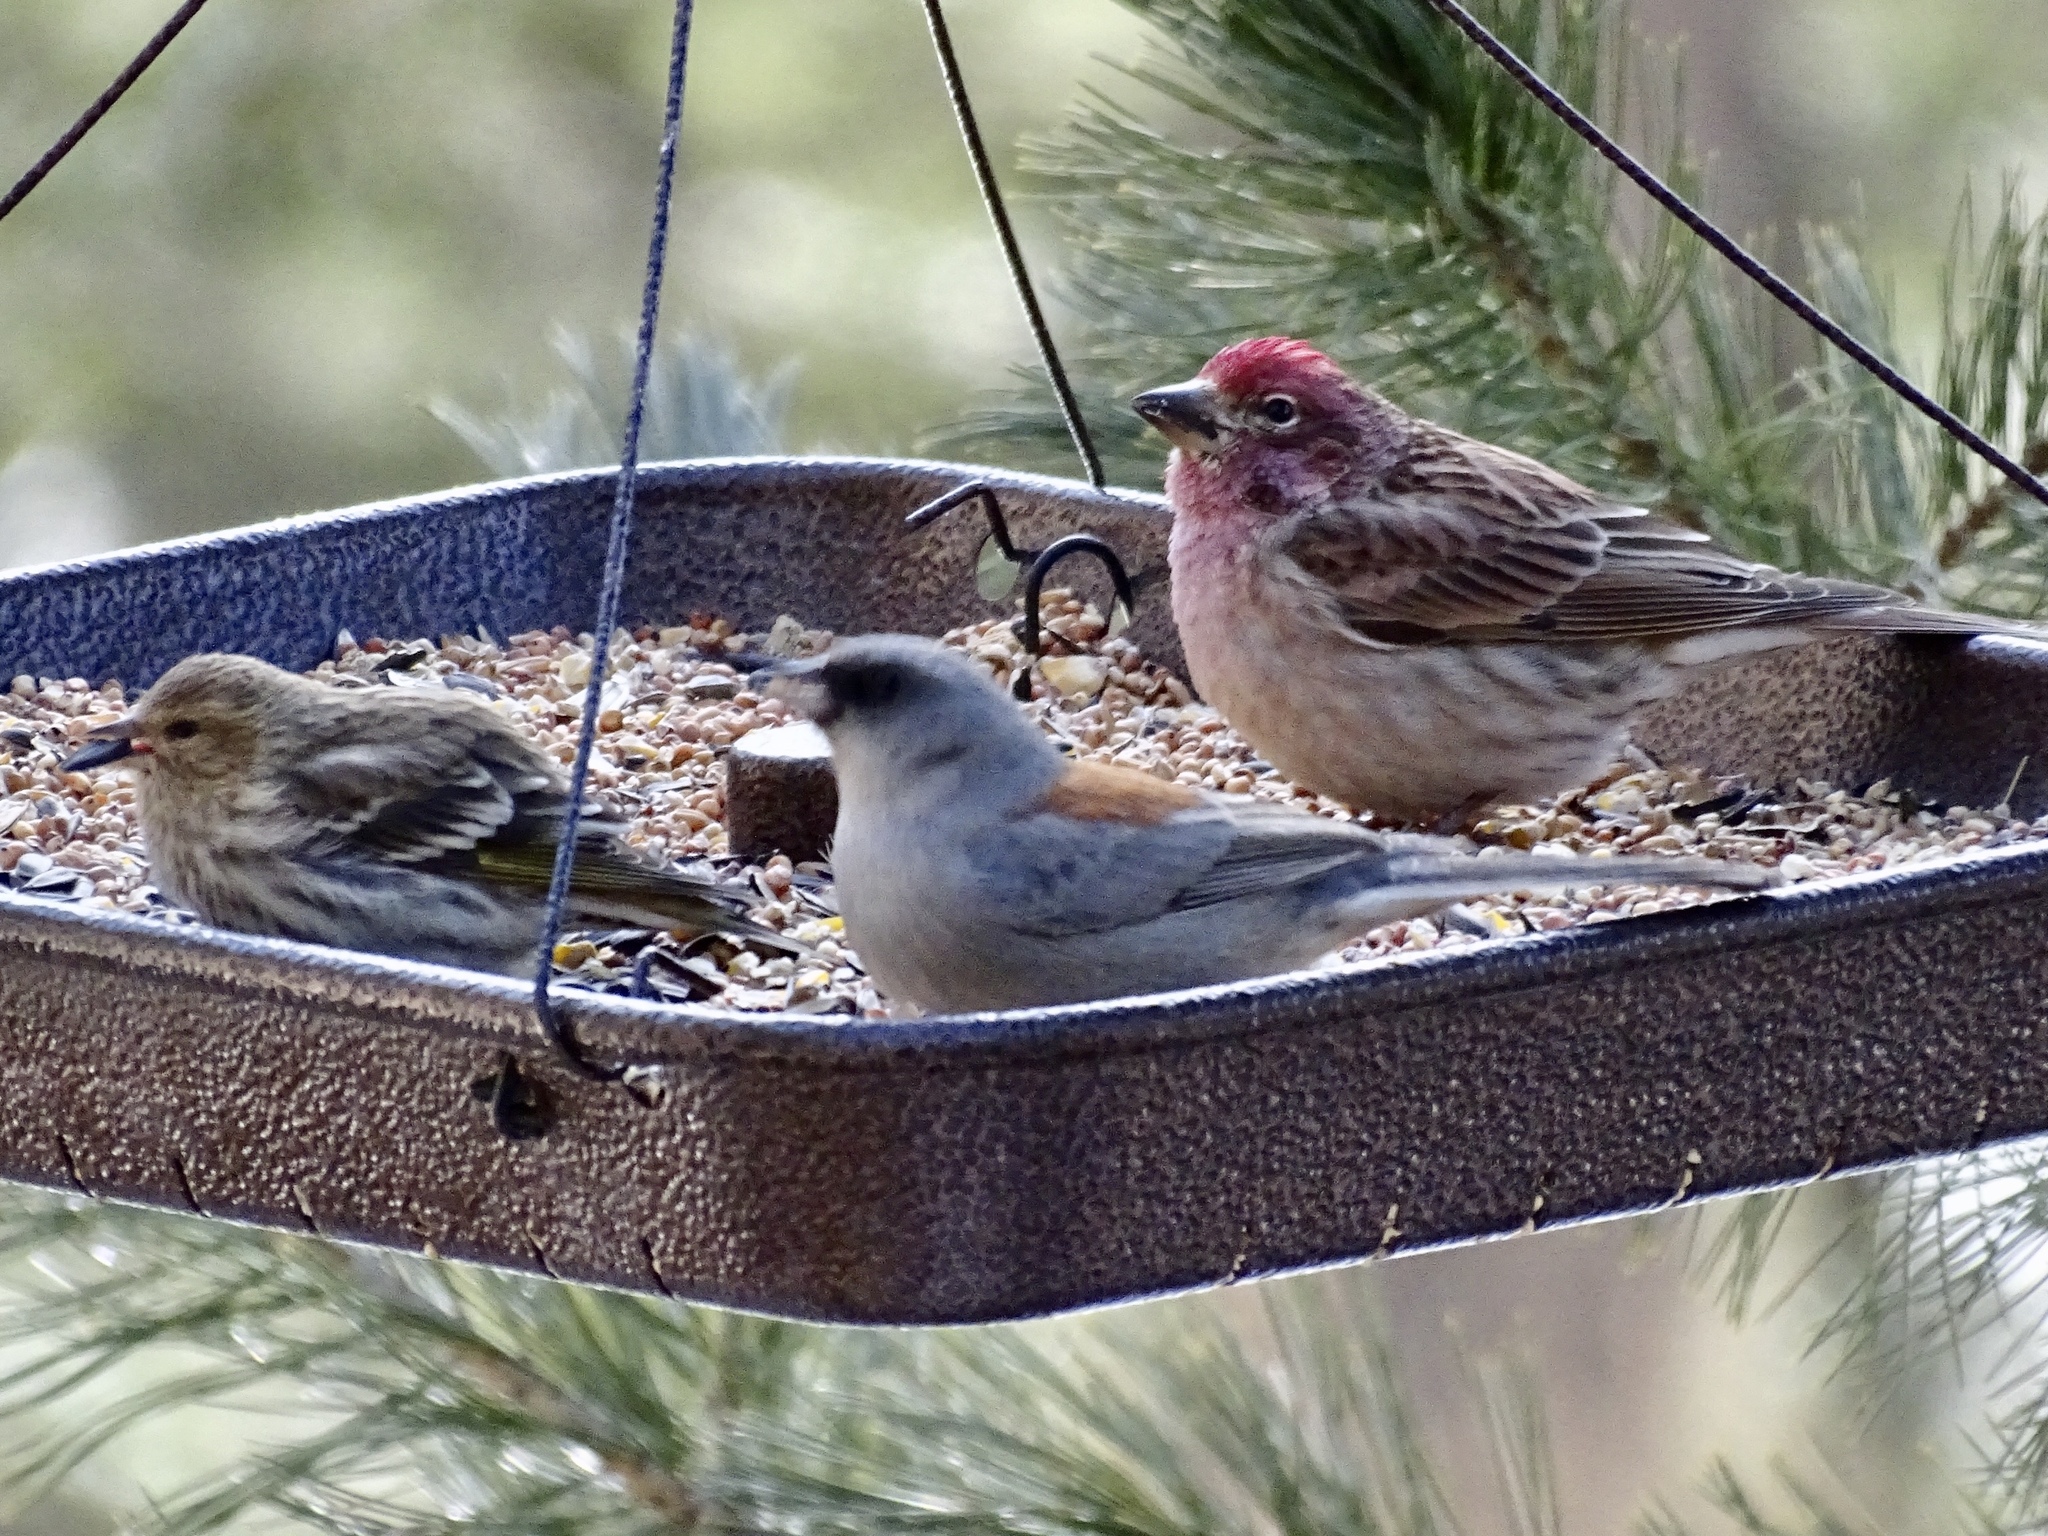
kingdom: Animalia
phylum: Chordata
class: Aves
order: Passeriformes
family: Fringillidae
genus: Spinus
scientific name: Spinus pinus
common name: Pine siskin
